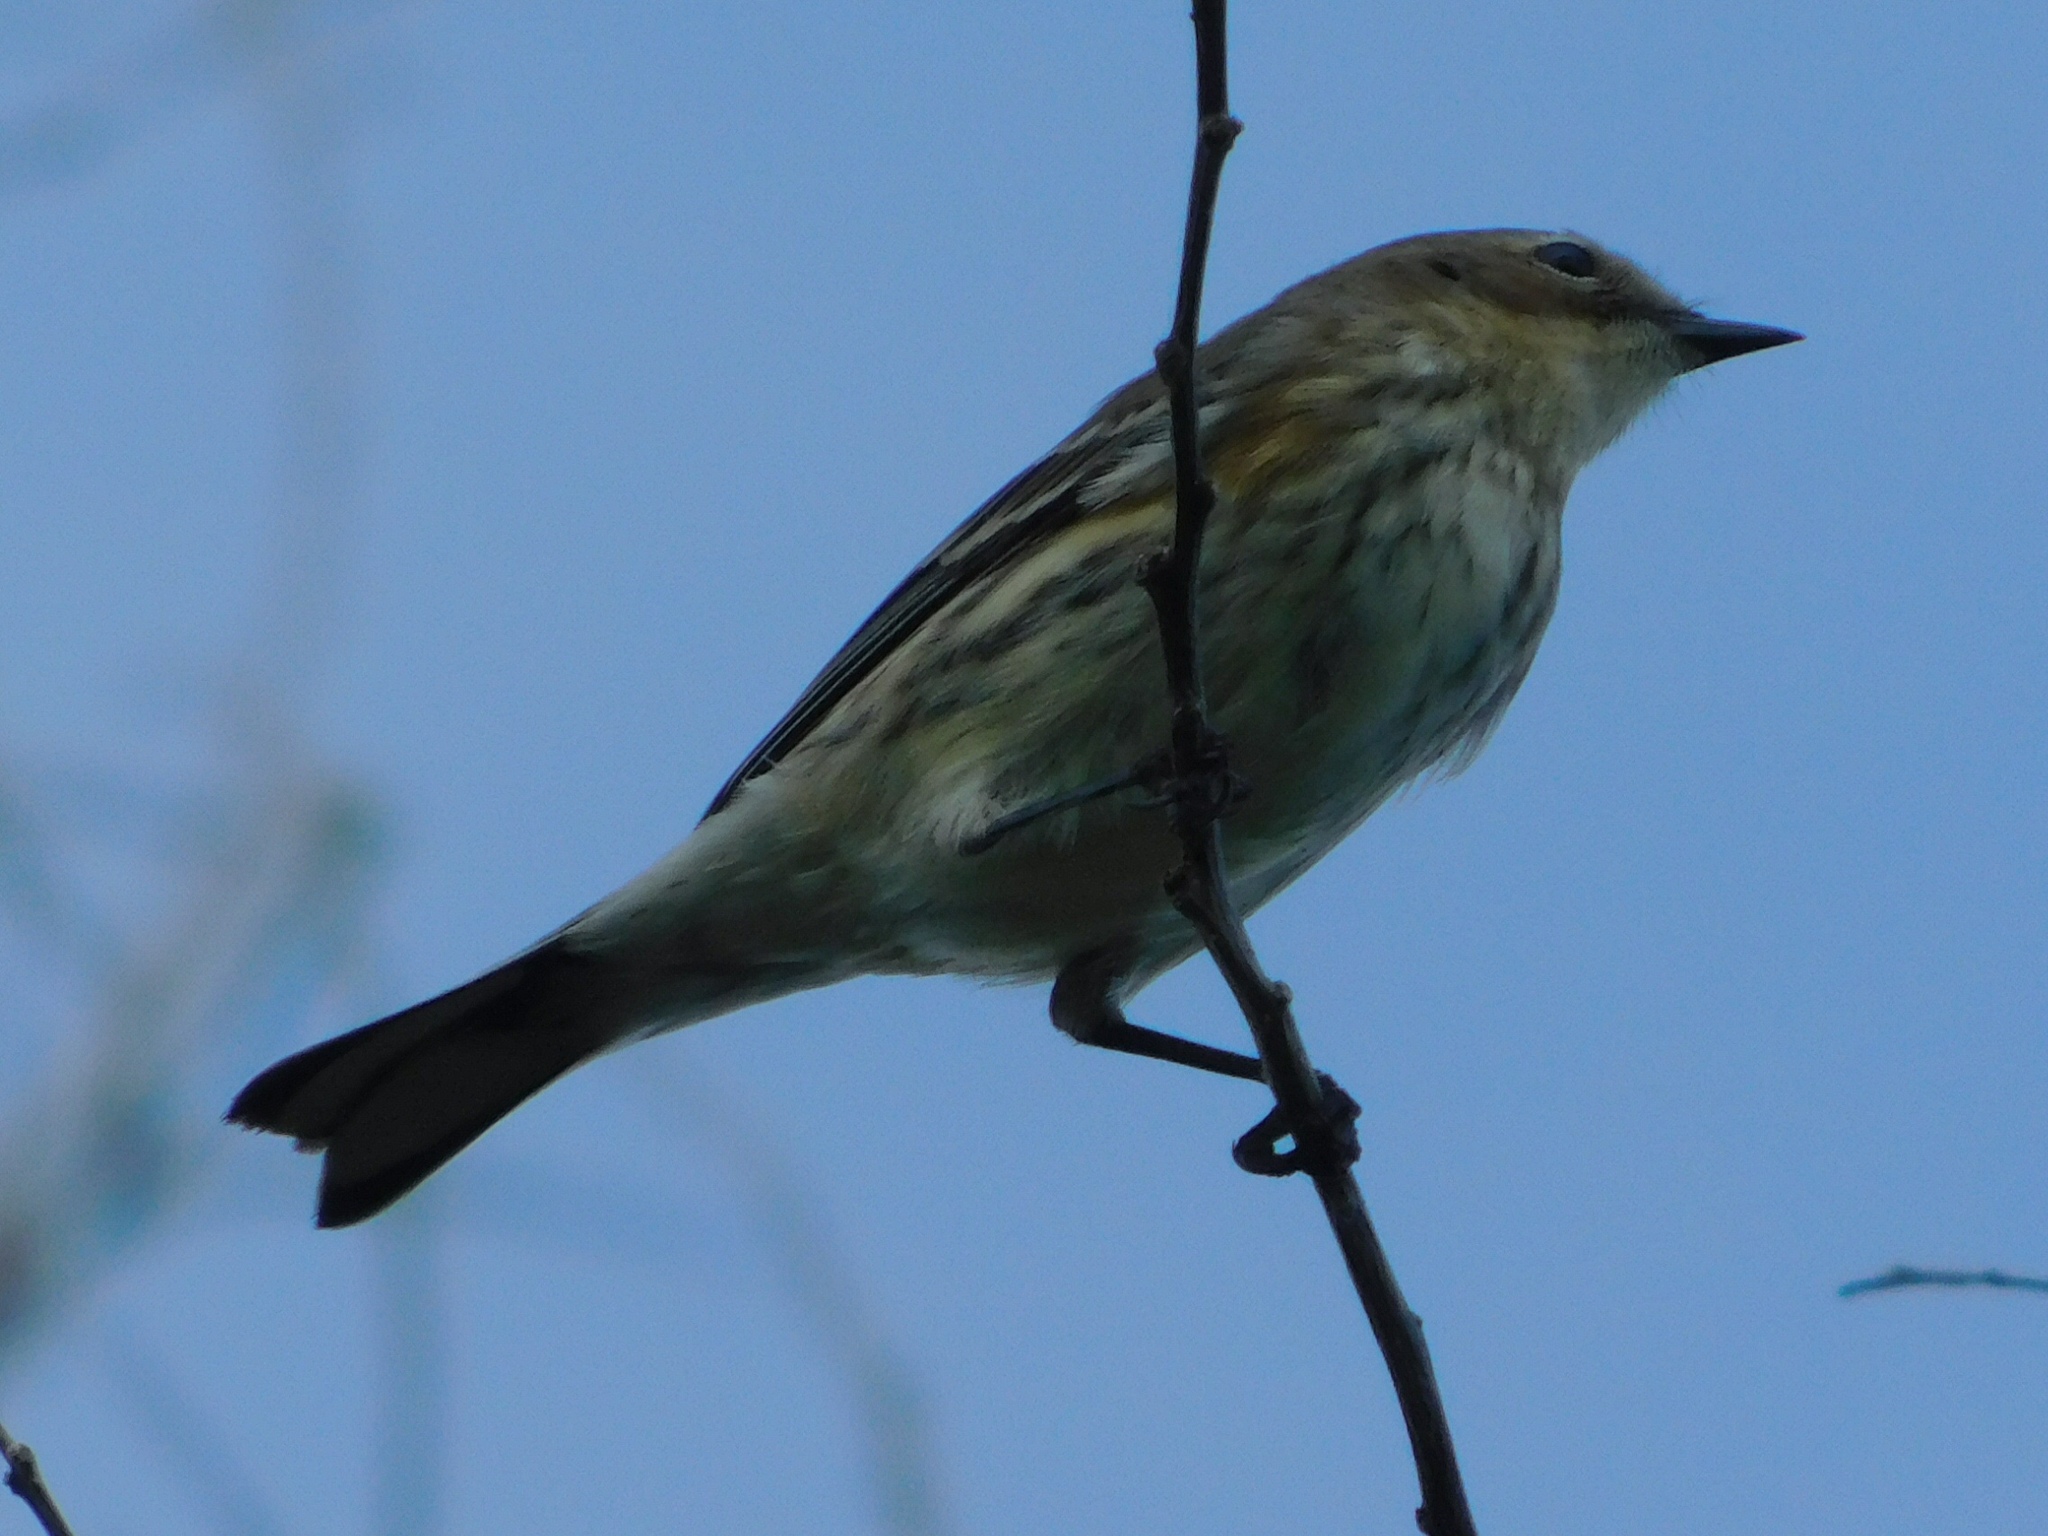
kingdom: Animalia
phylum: Chordata
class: Aves
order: Passeriformes
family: Parulidae
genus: Setophaga
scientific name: Setophaga coronata
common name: Myrtle warbler
